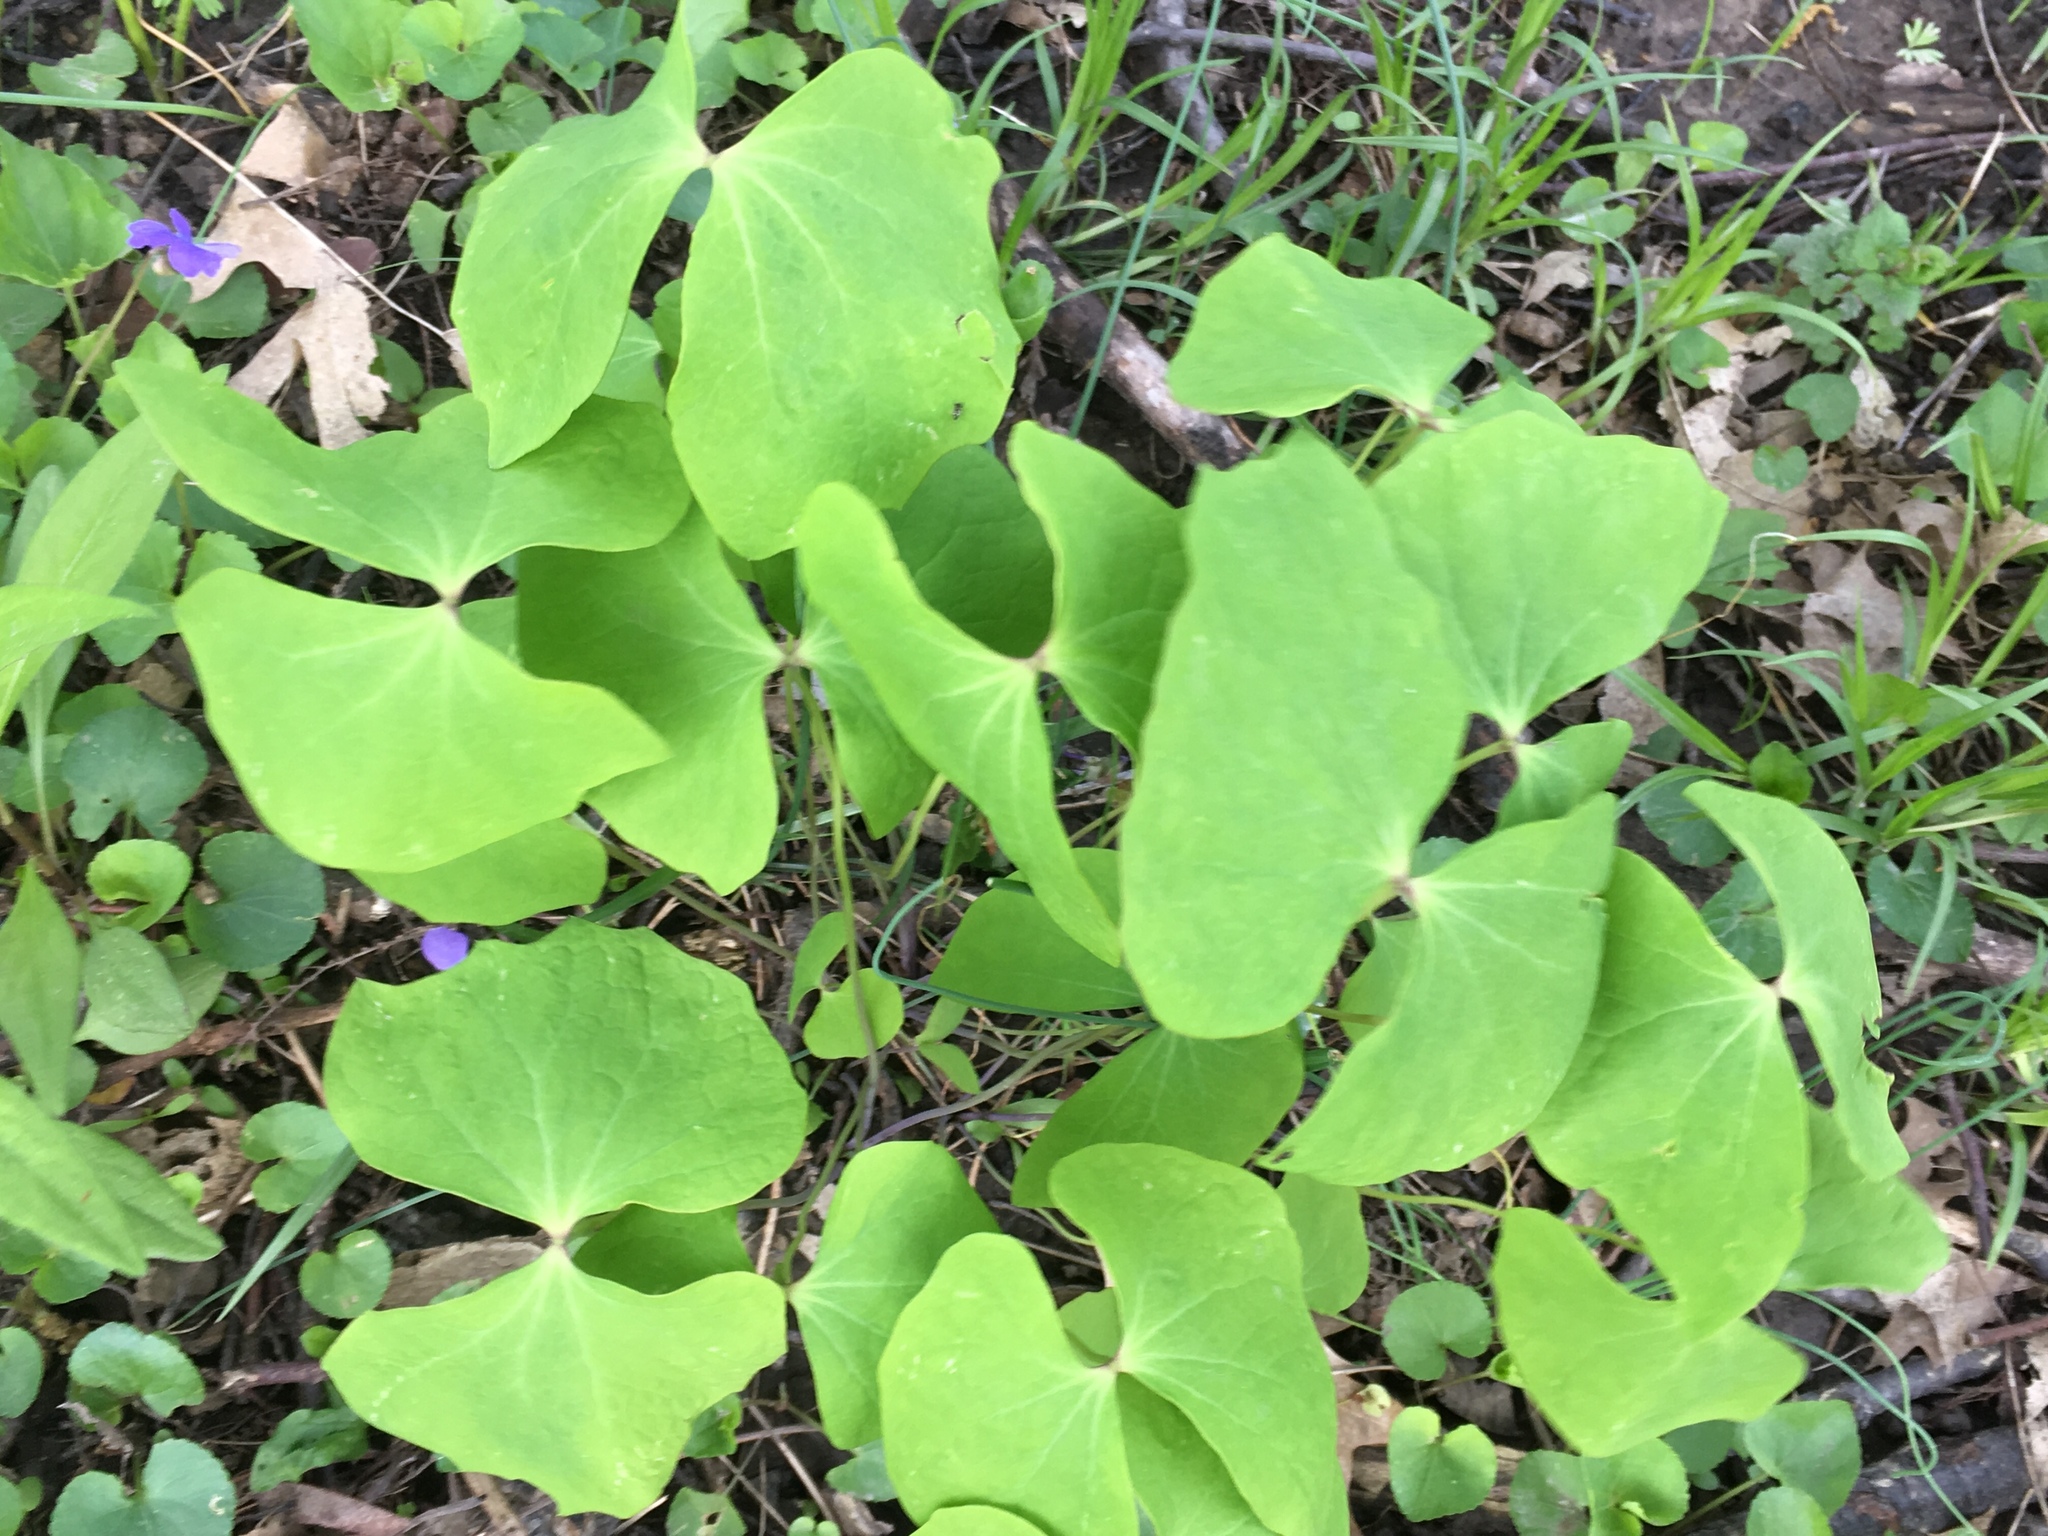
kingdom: Plantae
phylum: Tracheophyta
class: Magnoliopsida
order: Ranunculales
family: Berberidaceae
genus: Jeffersonia
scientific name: Jeffersonia diphylla
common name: Rheumatism-root
